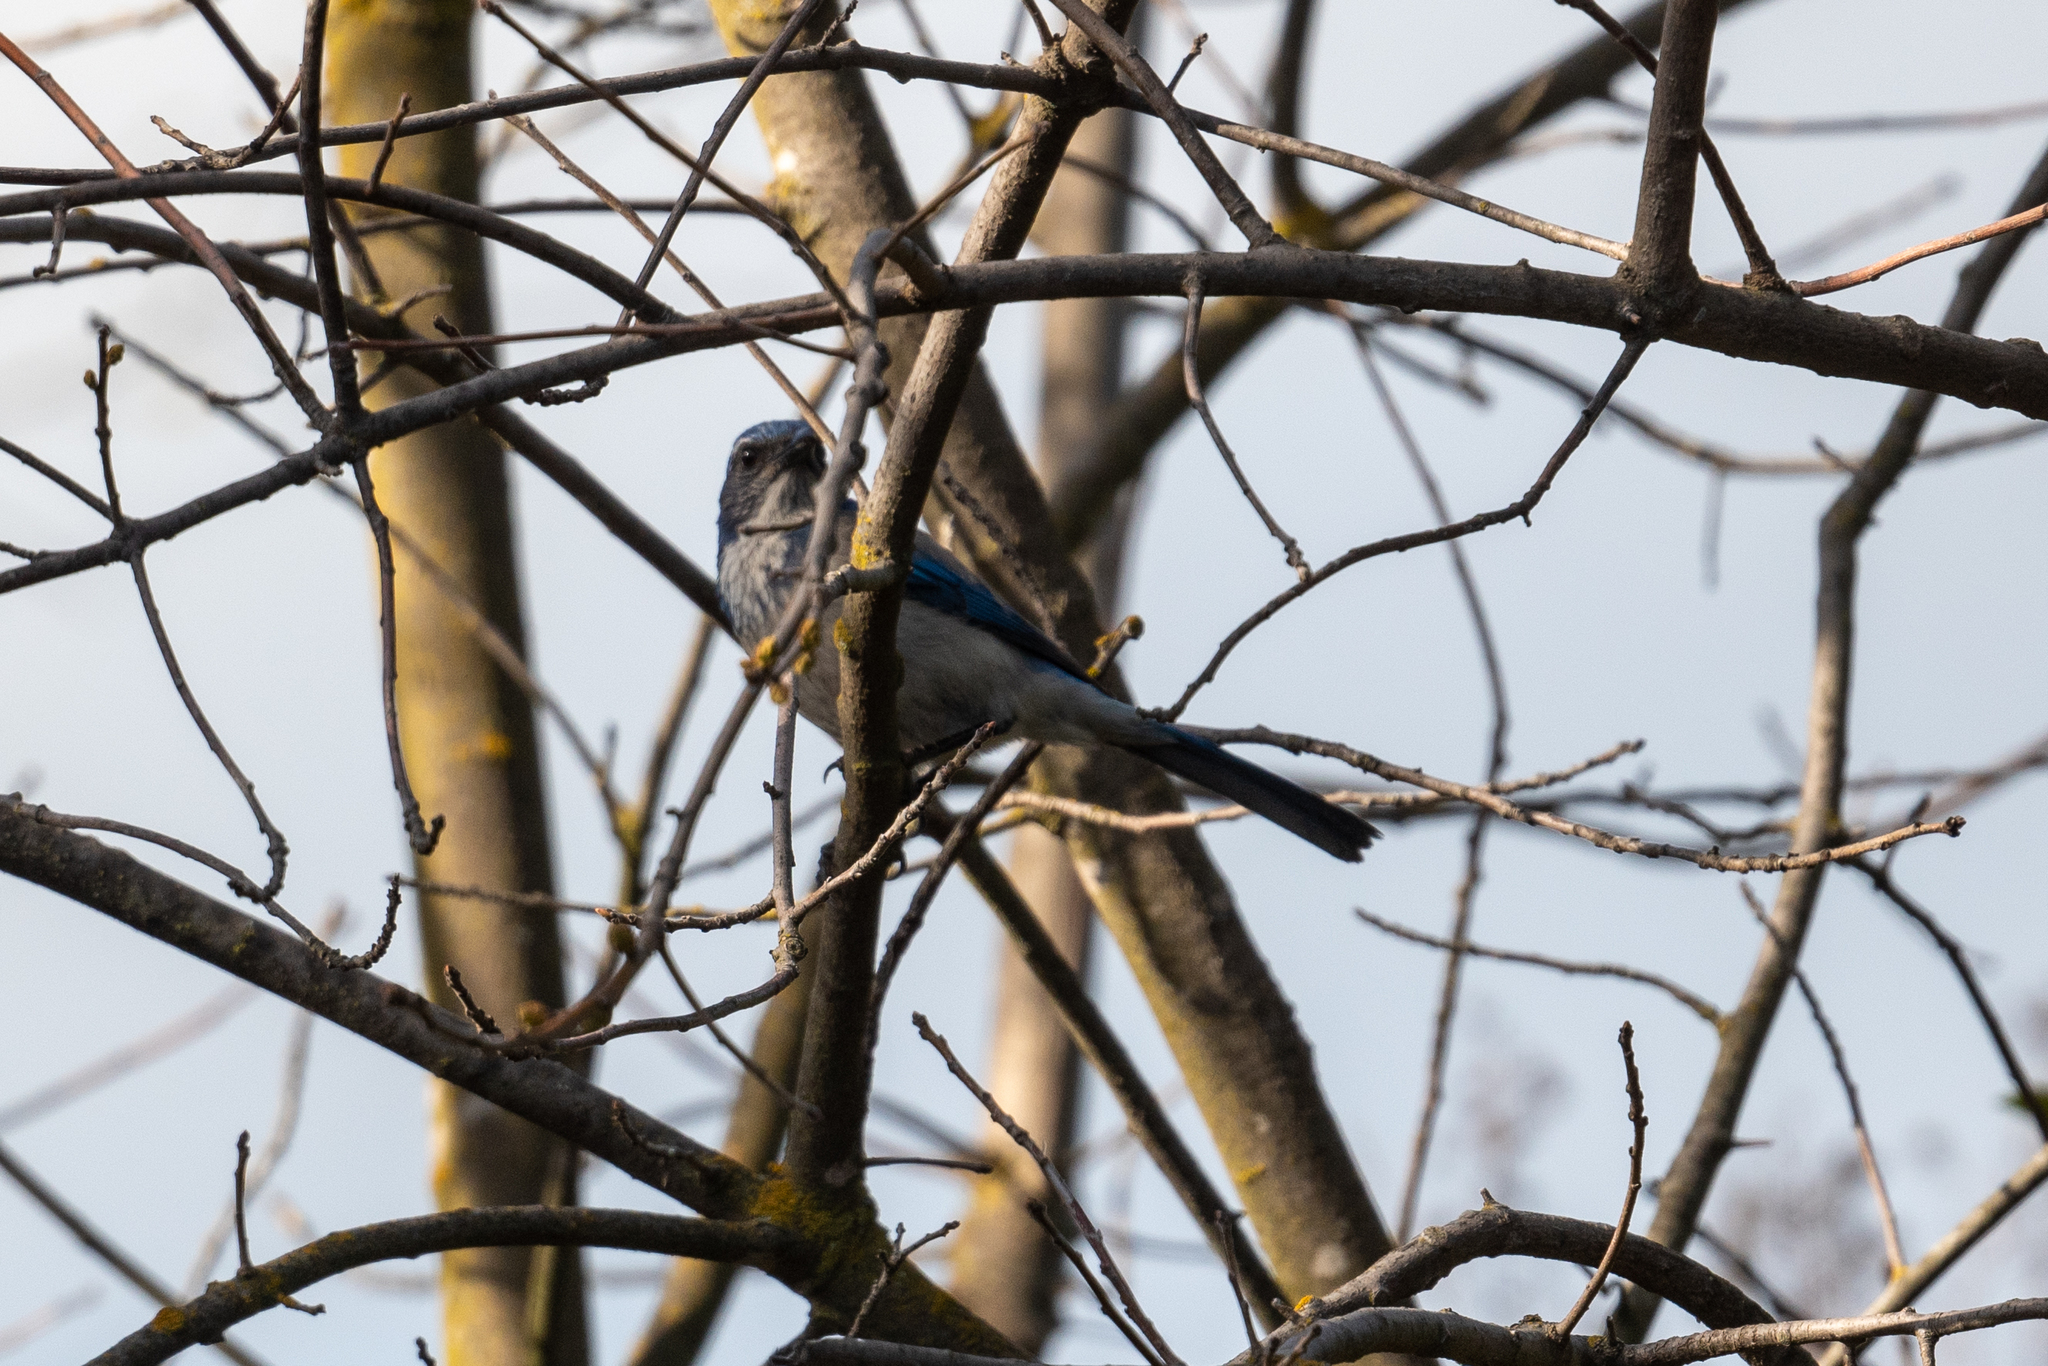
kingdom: Animalia
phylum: Chordata
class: Aves
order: Passeriformes
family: Corvidae
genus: Aphelocoma
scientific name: Aphelocoma californica
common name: California scrub-jay
